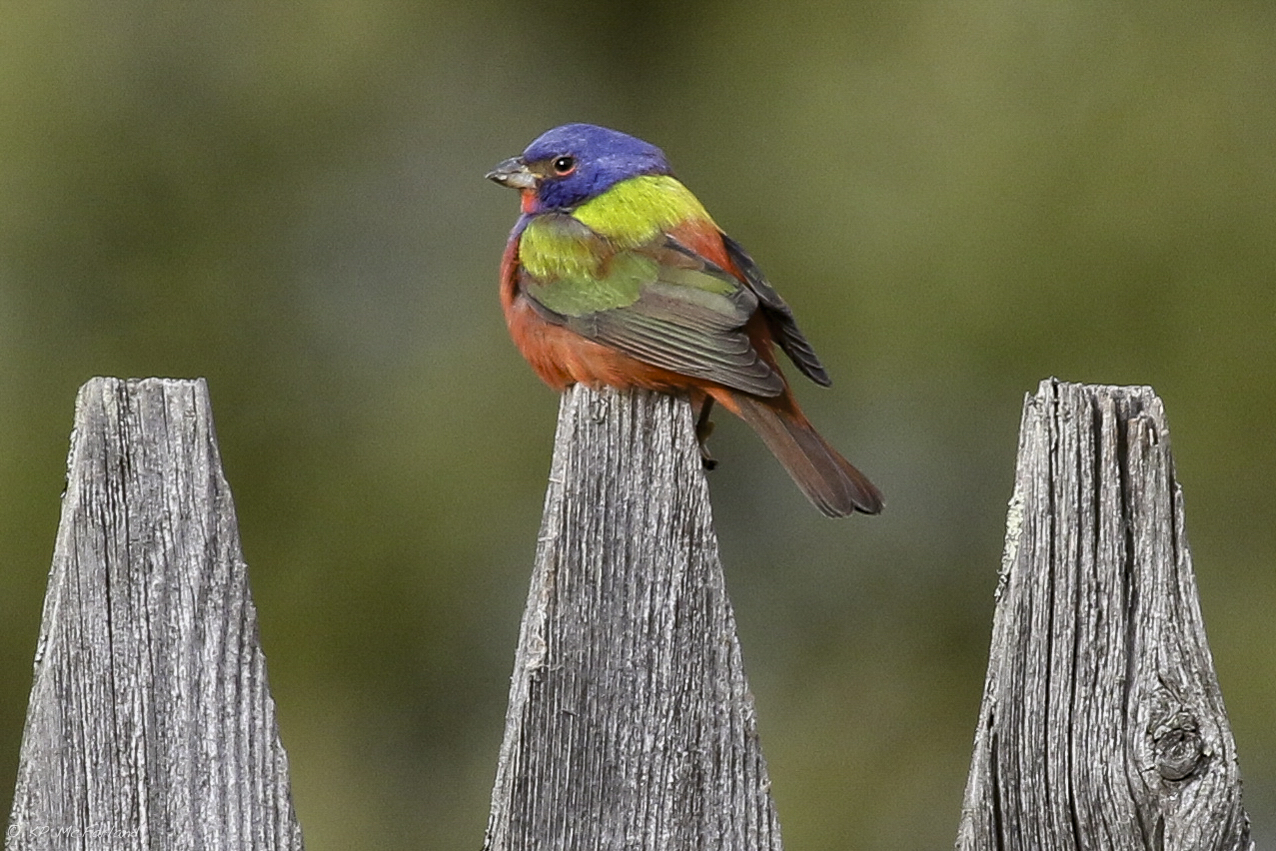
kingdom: Animalia
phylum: Chordata
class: Aves
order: Passeriformes
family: Cardinalidae
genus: Passerina
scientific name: Passerina ciris
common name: Painted bunting
